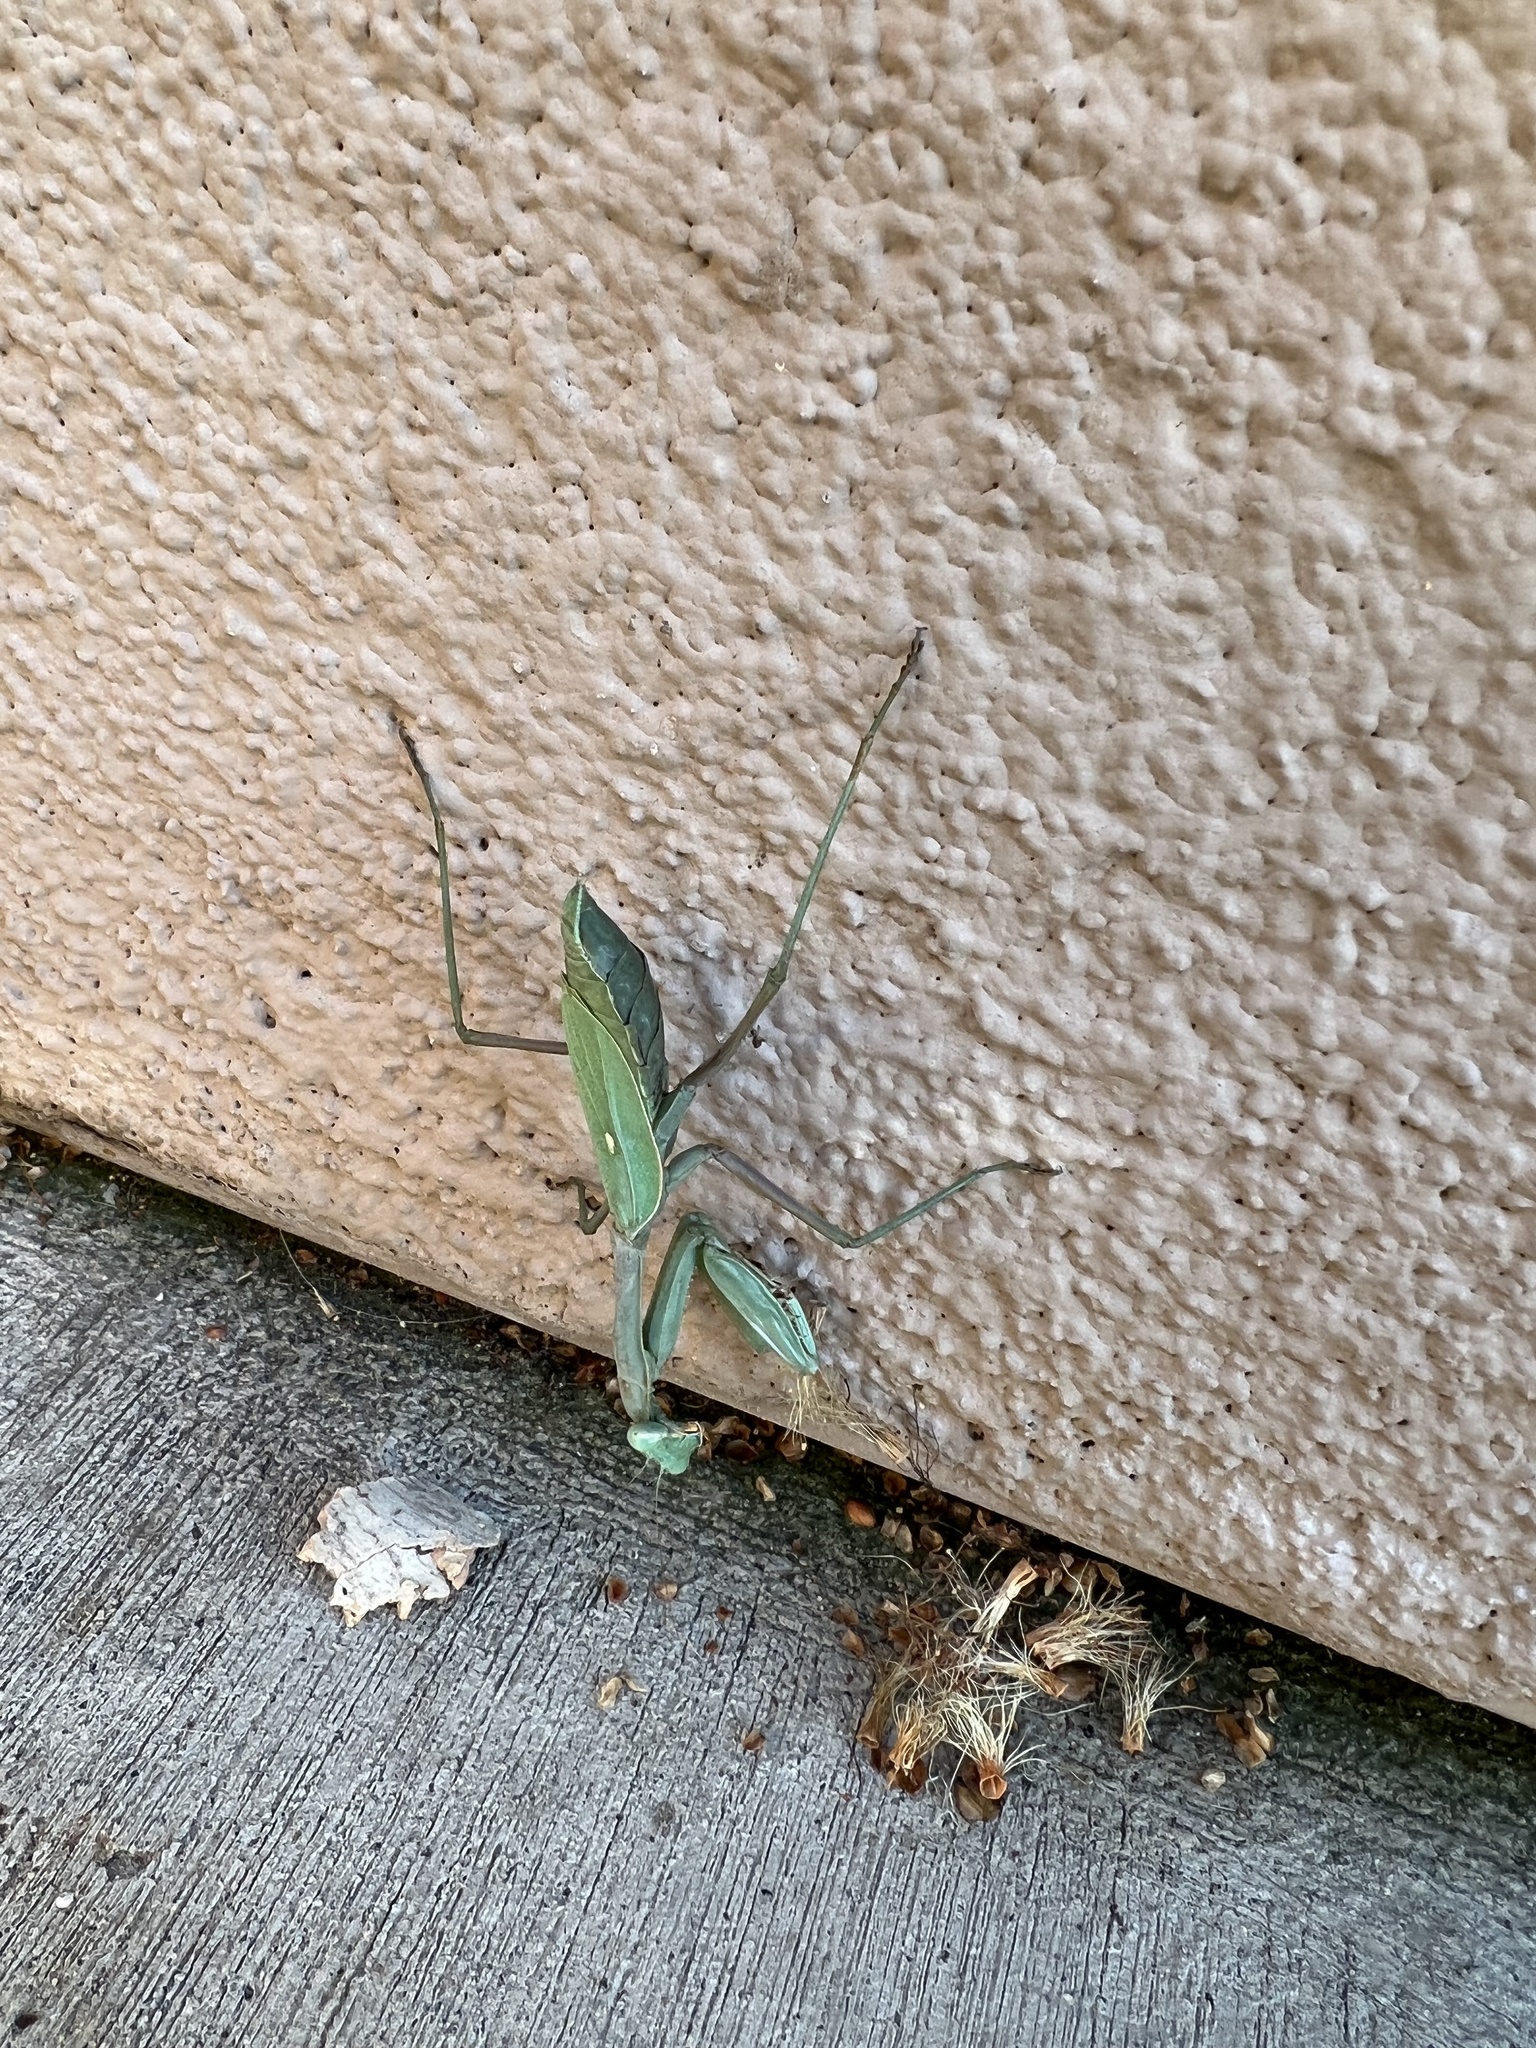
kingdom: Animalia
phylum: Arthropoda
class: Insecta
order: Mantodea
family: Mantidae
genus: Stagmomantis
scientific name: Stagmomantis limbata
